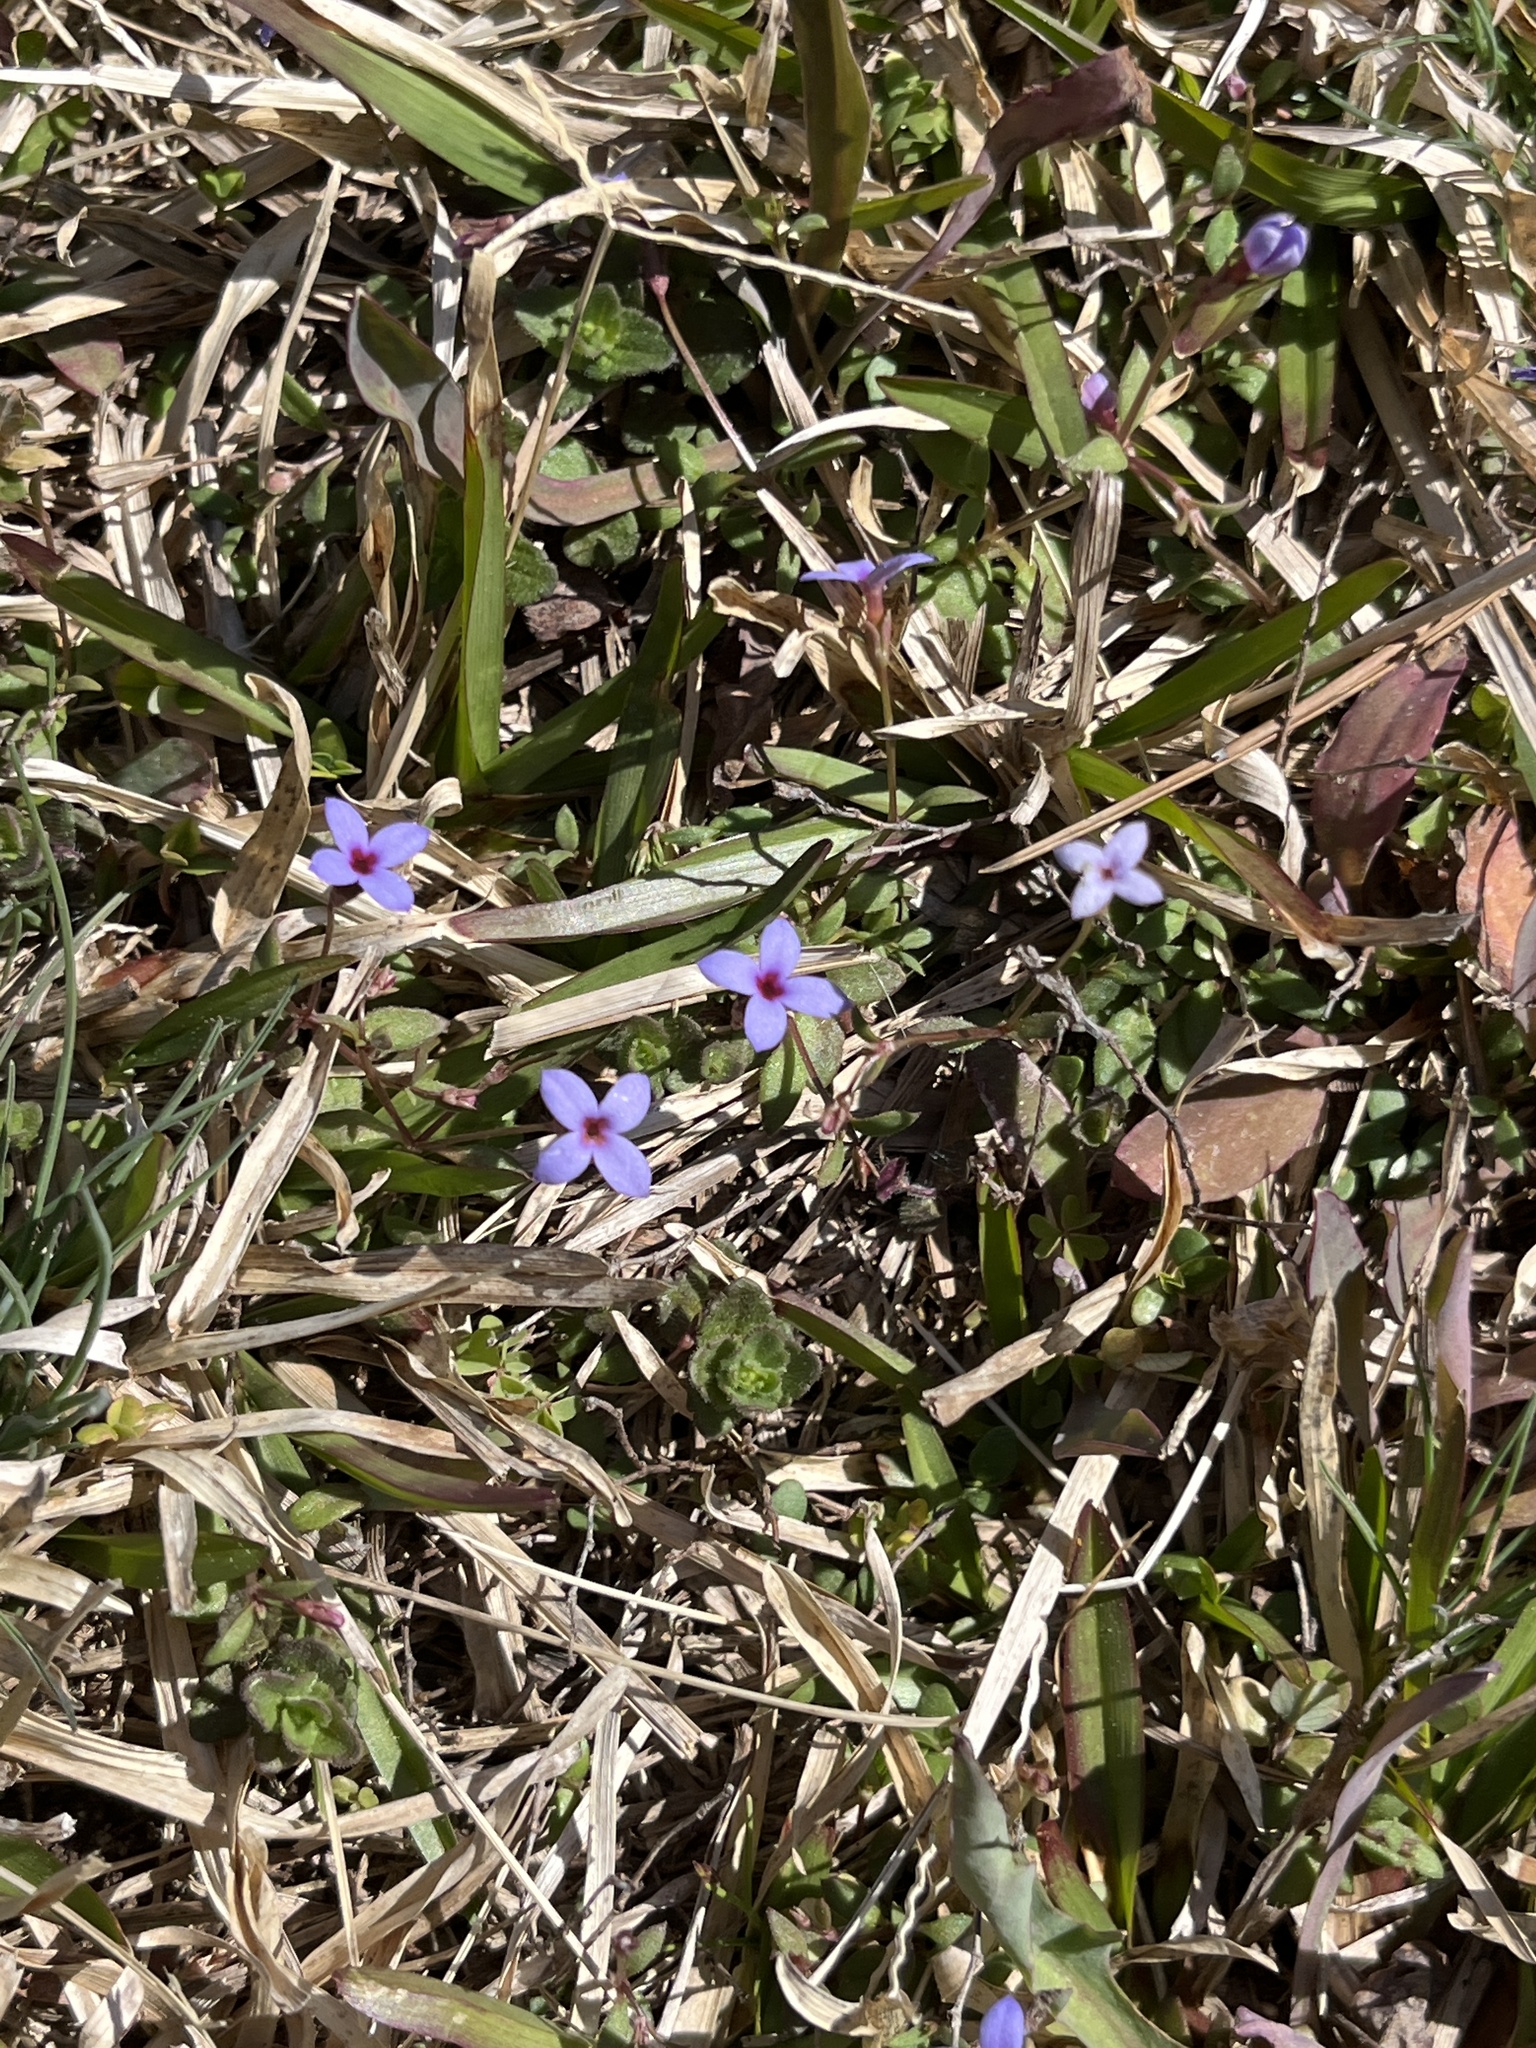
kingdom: Plantae
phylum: Tracheophyta
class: Magnoliopsida
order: Gentianales
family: Rubiaceae
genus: Houstonia
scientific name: Houstonia pusilla
